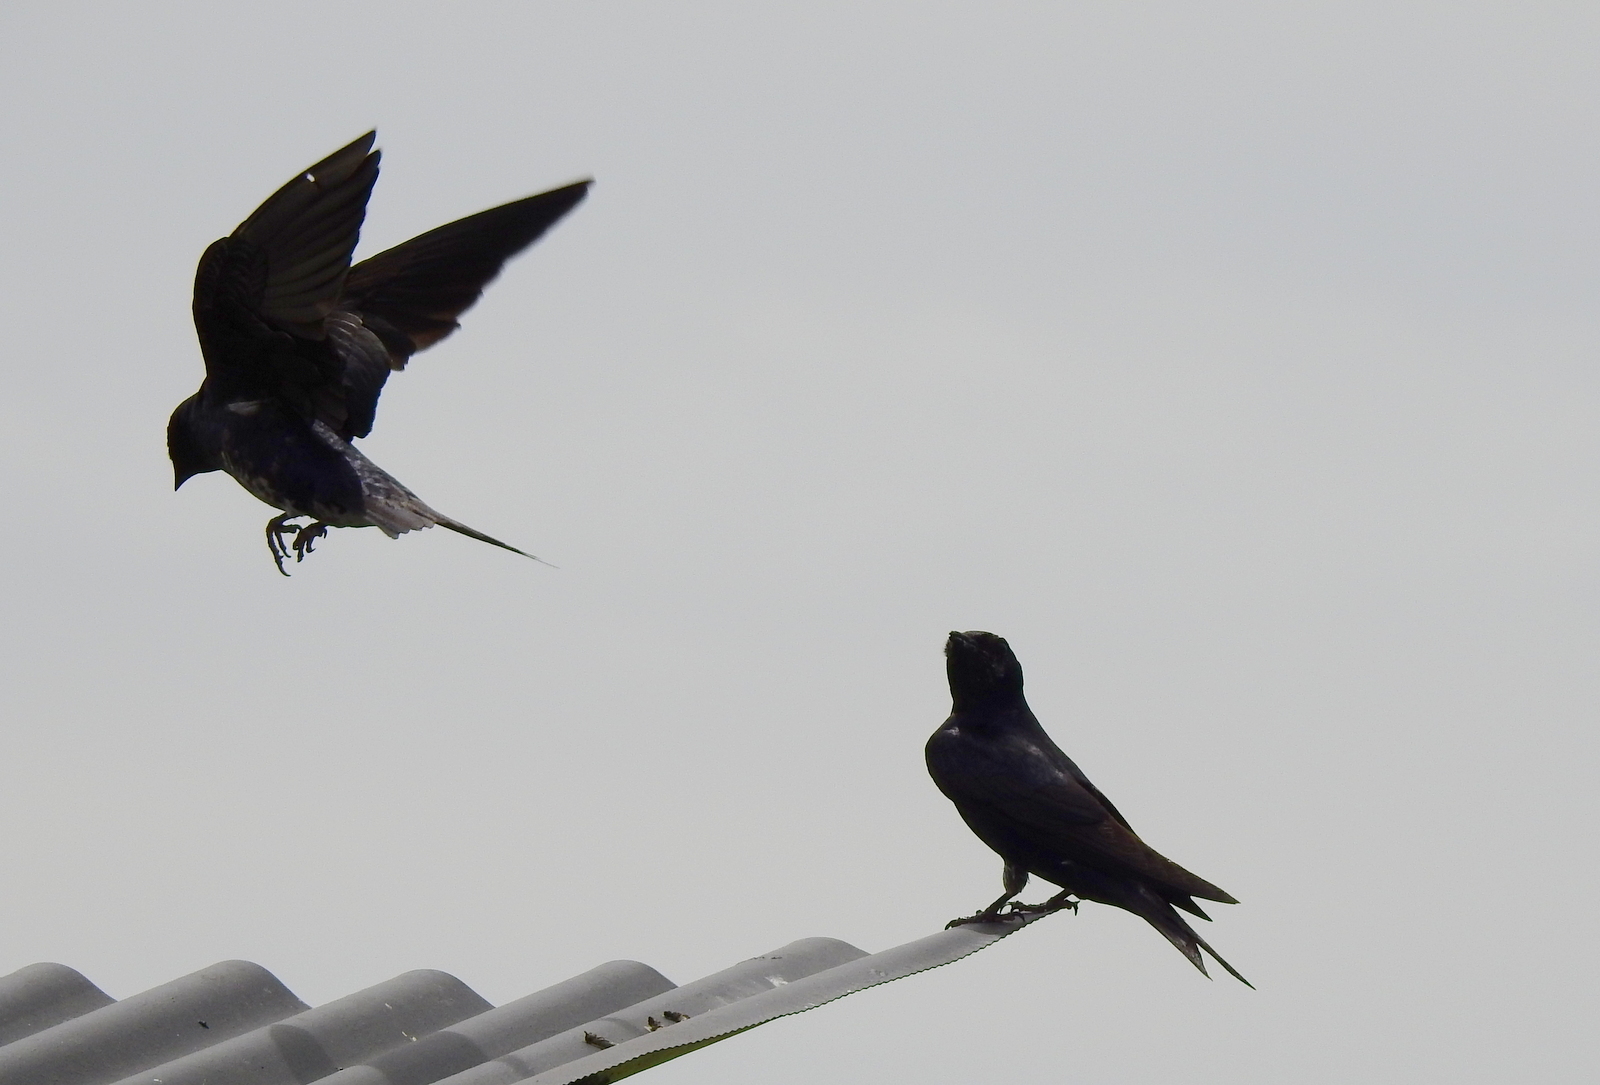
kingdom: Animalia
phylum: Chordata
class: Aves
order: Passeriformes
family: Hirundinidae
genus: Progne
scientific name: Progne elegans
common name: Southern martin
